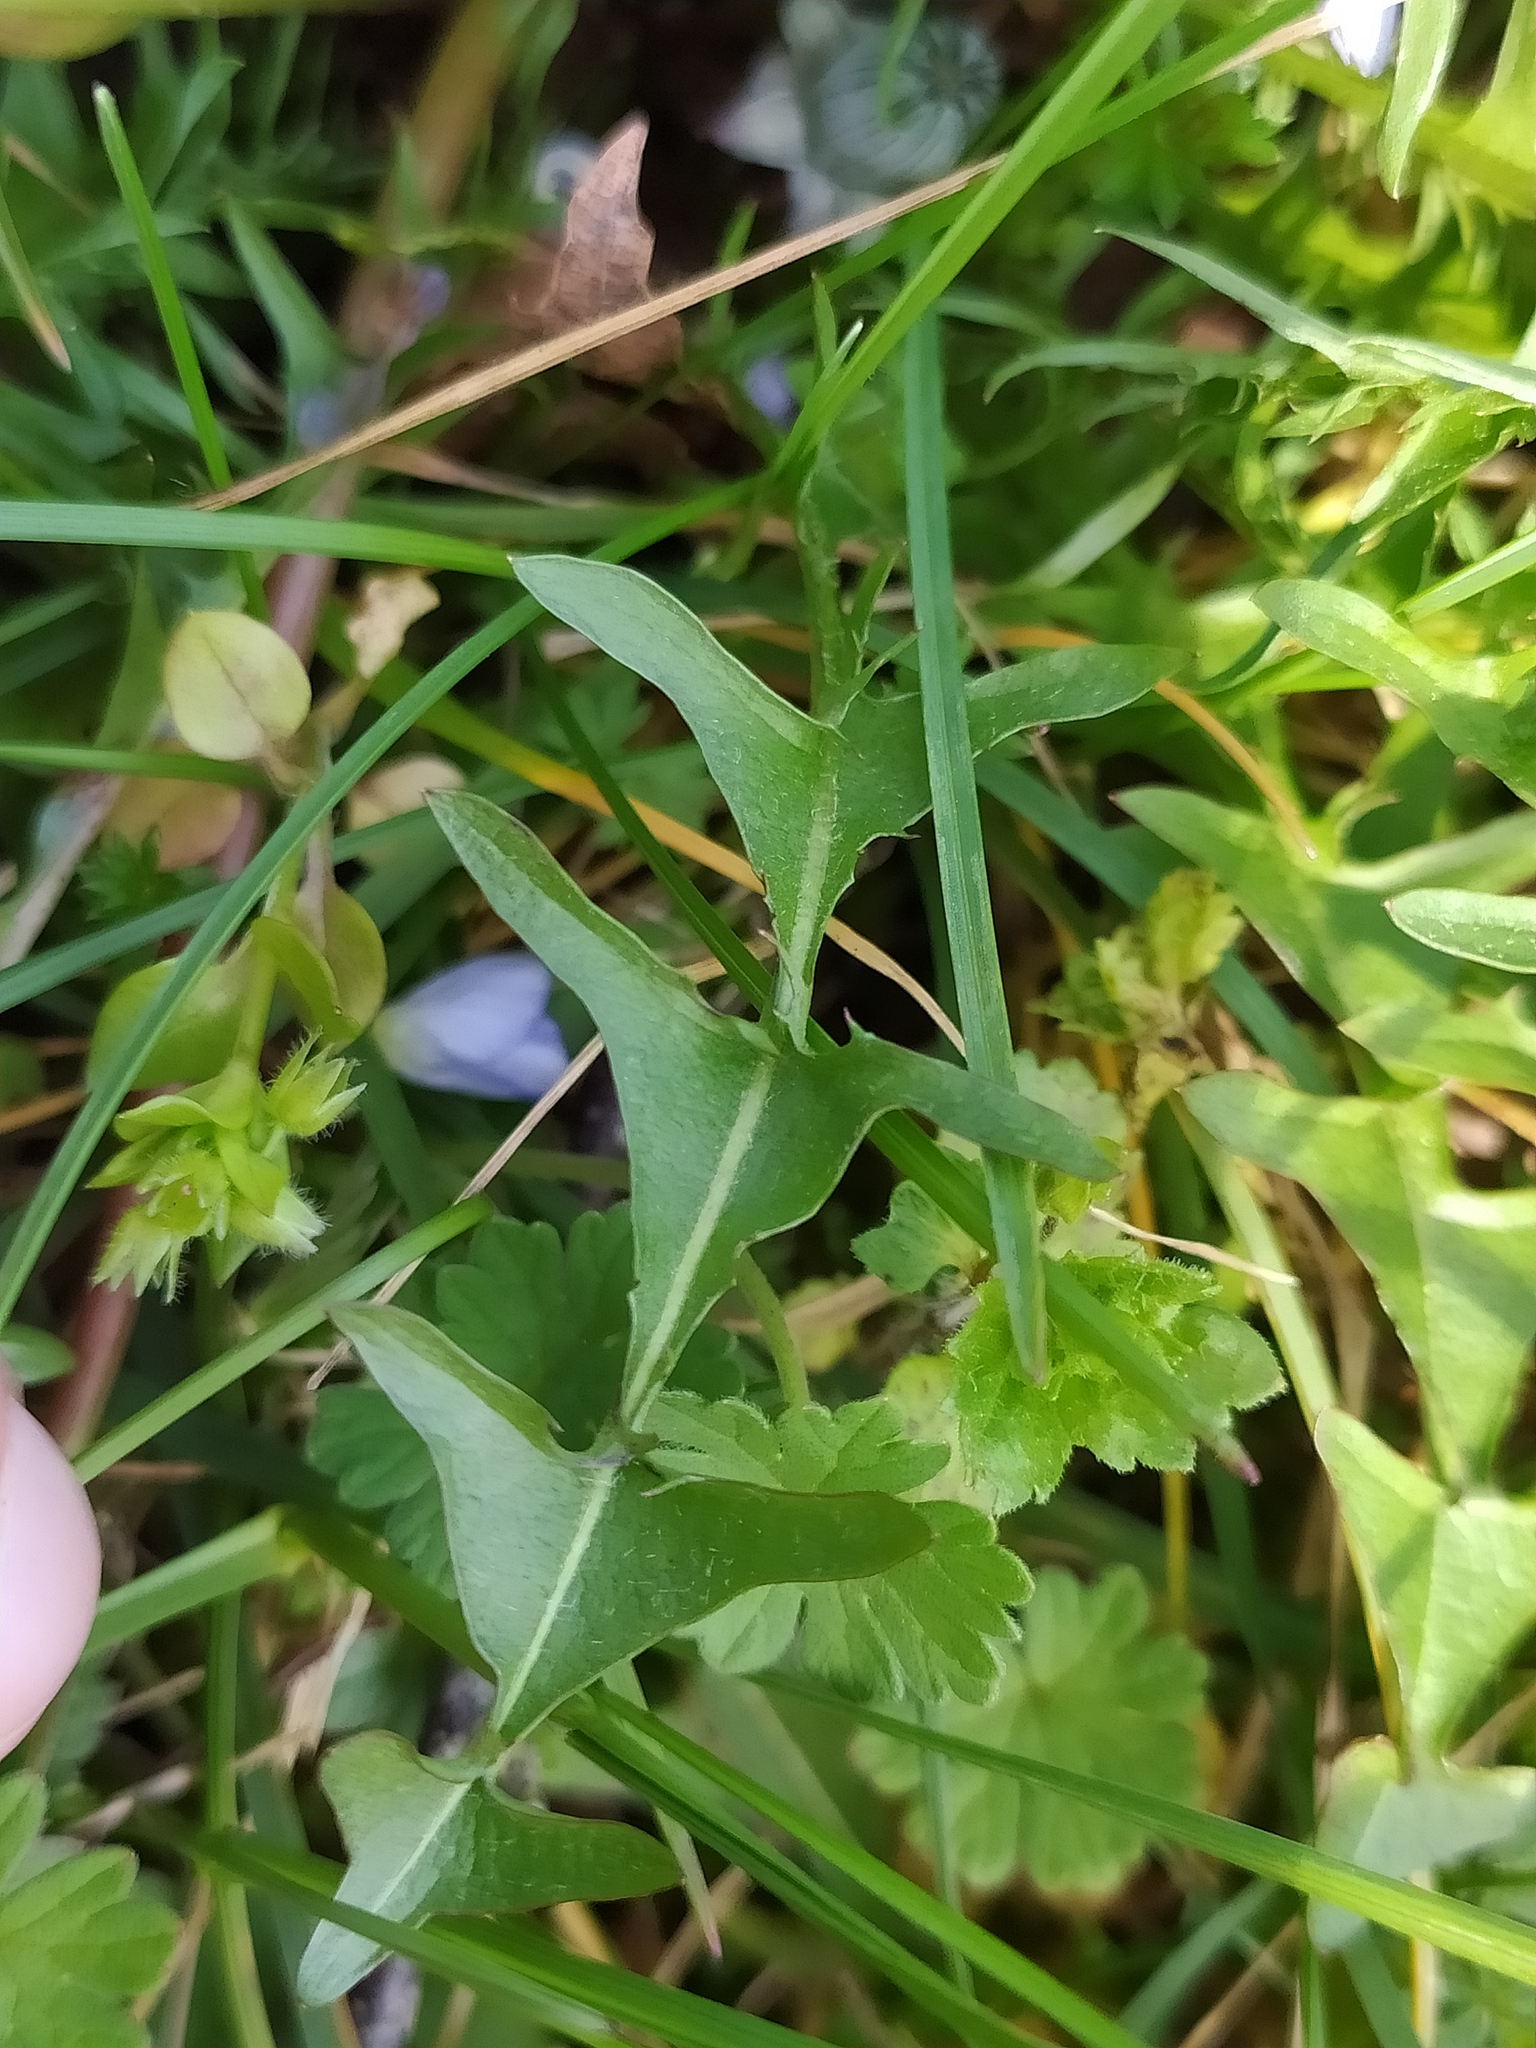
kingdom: Plantae
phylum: Tracheophyta
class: Magnoliopsida
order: Asterales
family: Asteraceae
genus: Taraxacum
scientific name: Taraxacum lacistophyllum
